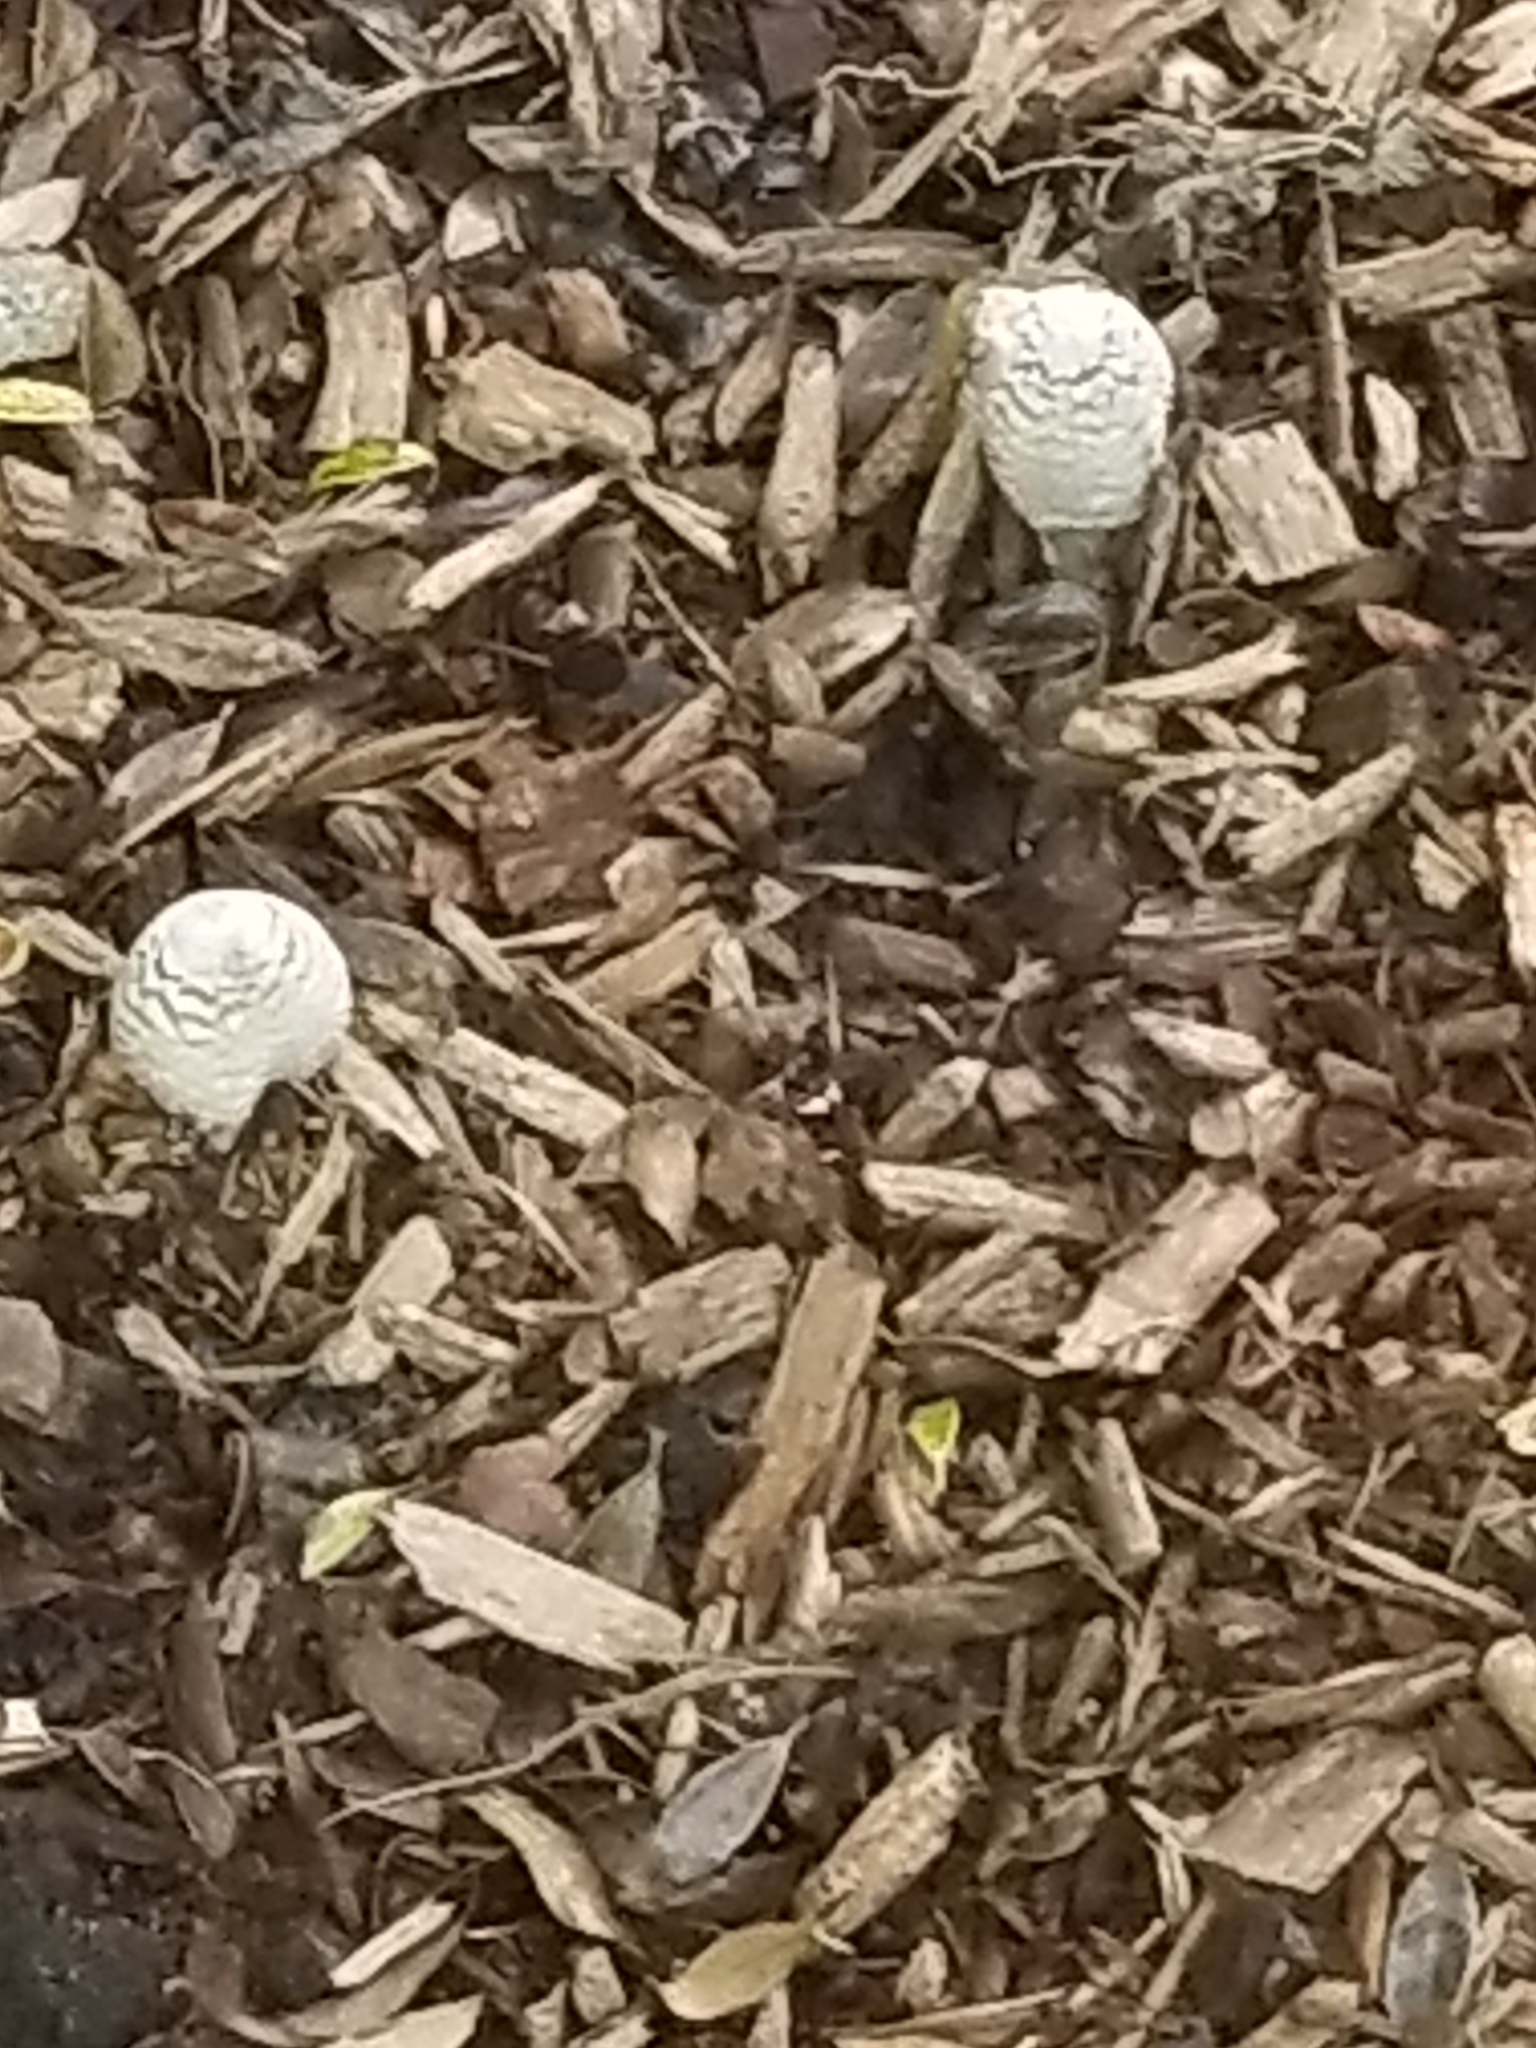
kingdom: Fungi
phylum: Basidiomycota
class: Agaricomycetes
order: Agaricales
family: Psathyrellaceae
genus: Coprinopsis
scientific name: Coprinopsis variegata
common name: Scaly ink cap
